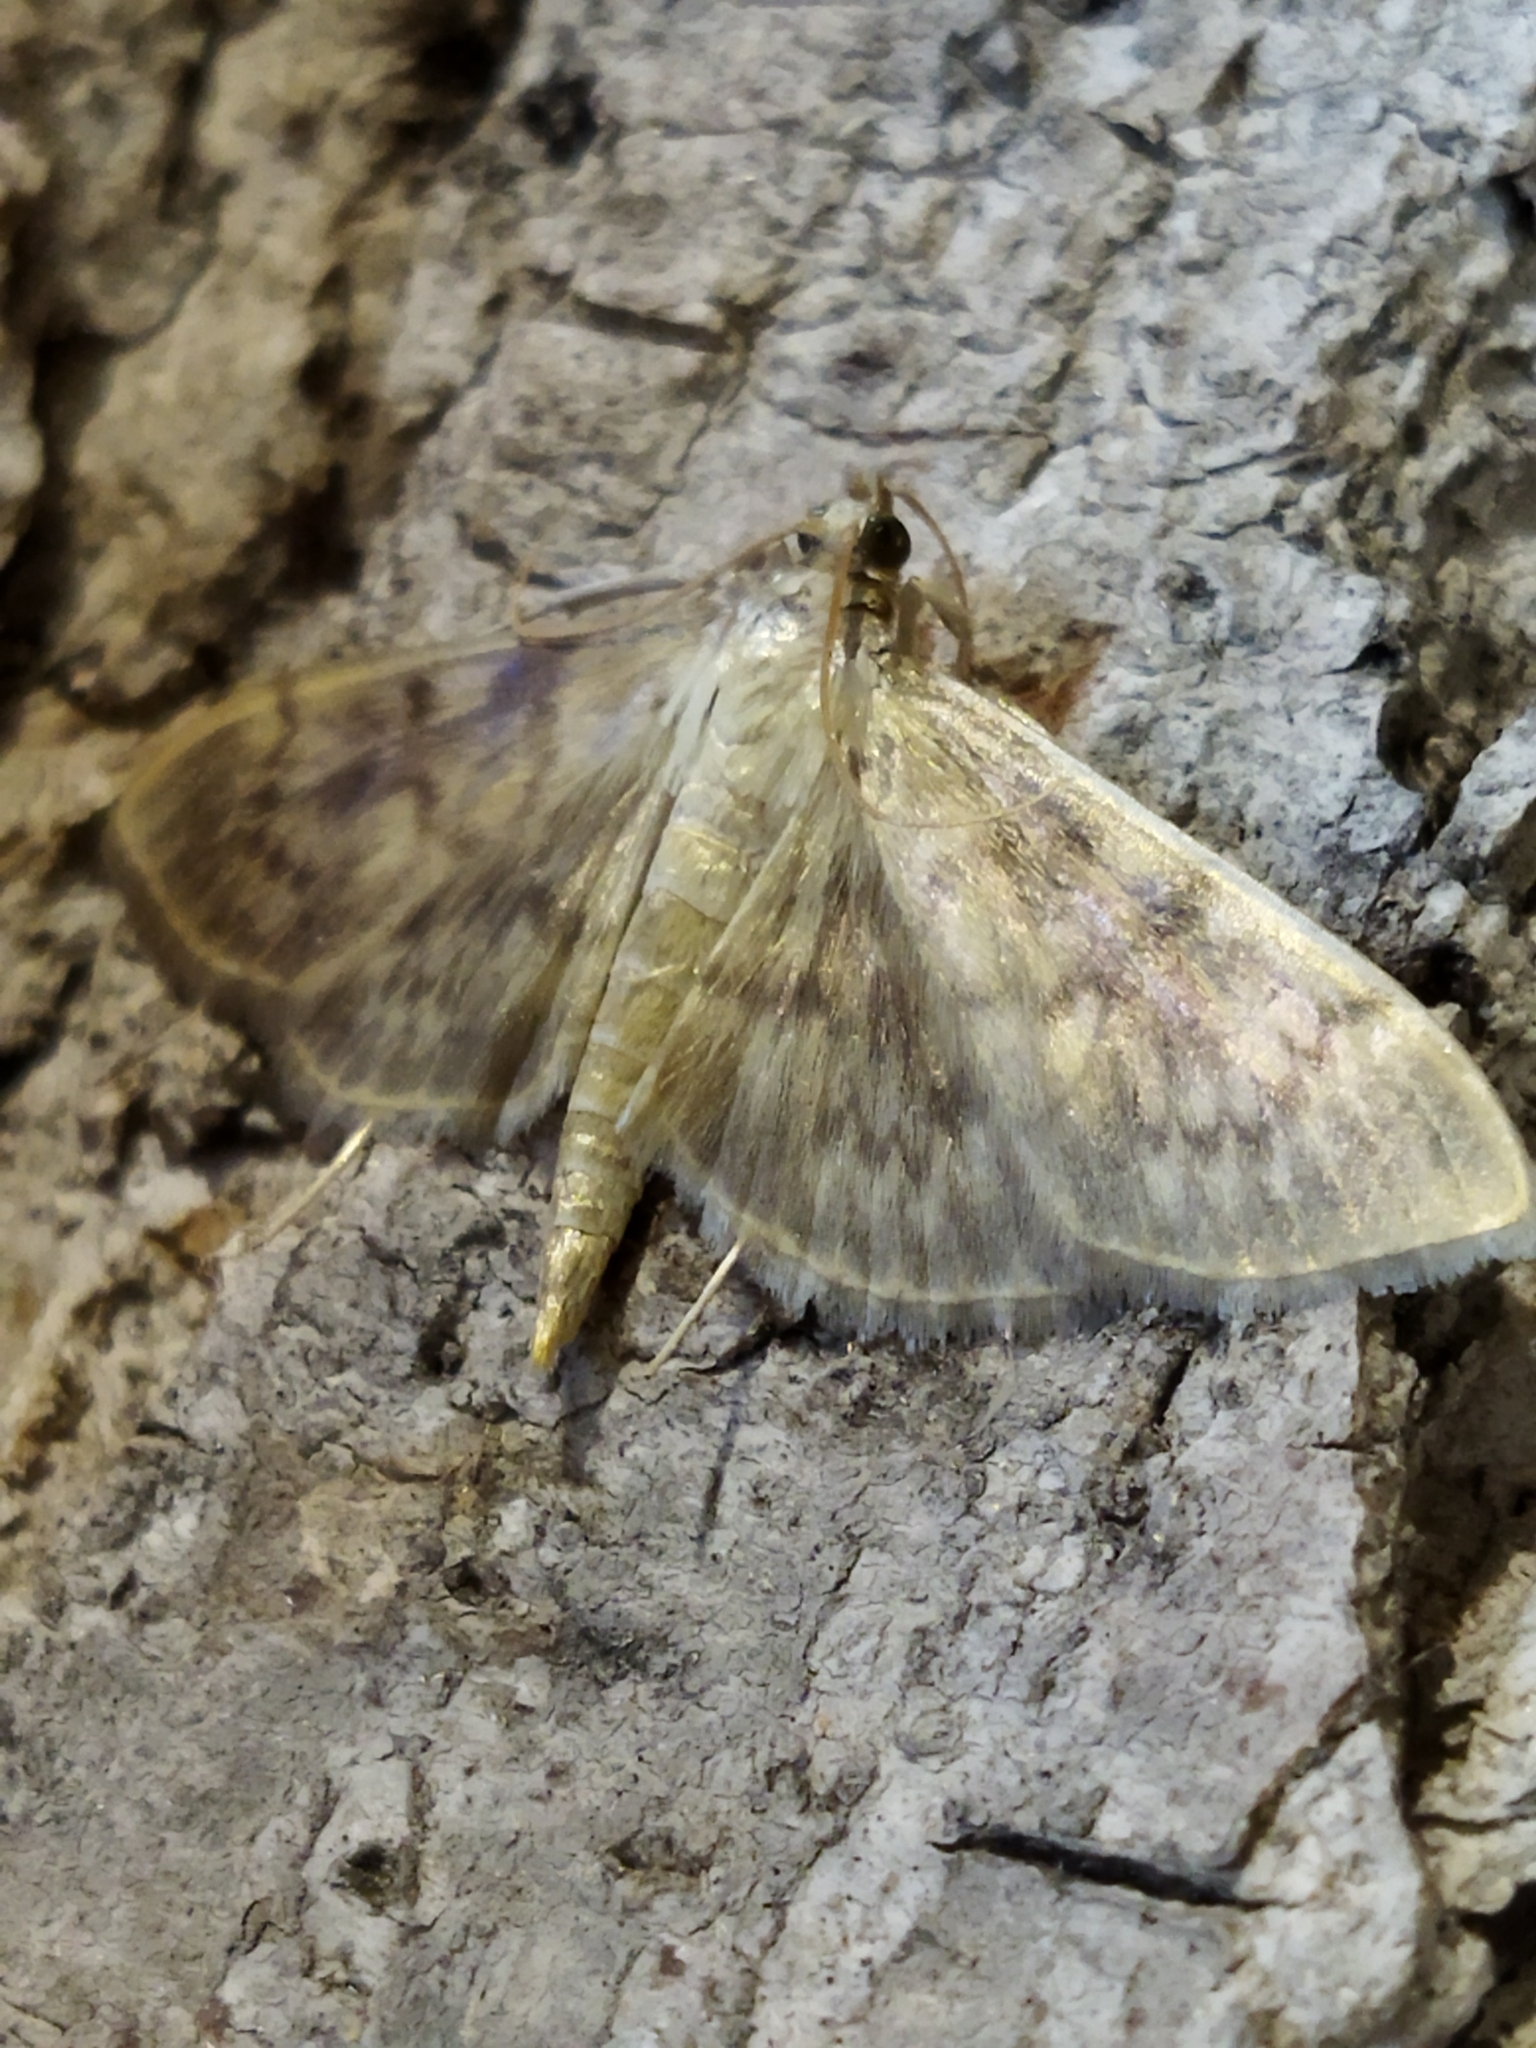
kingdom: Animalia
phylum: Arthropoda
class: Insecta
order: Lepidoptera
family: Crambidae
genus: Patania
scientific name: Patania ruralis
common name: Mother of pearl
